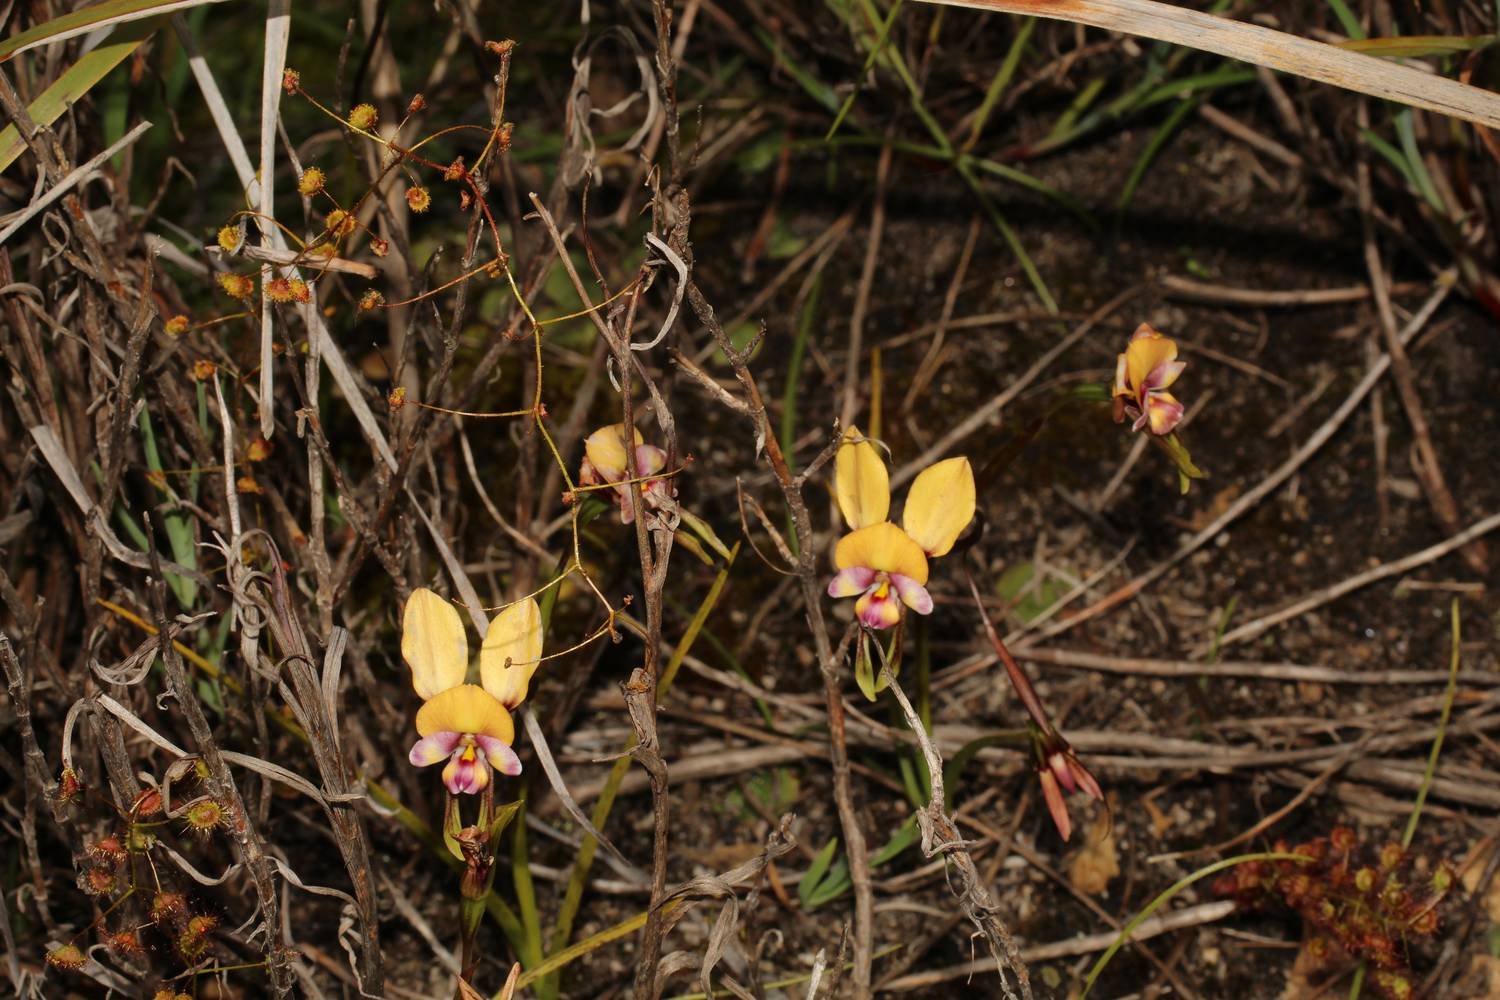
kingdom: Plantae
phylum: Tracheophyta
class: Liliopsida
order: Asparagales
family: Orchidaceae
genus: Diuris
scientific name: Diuris pulchella
